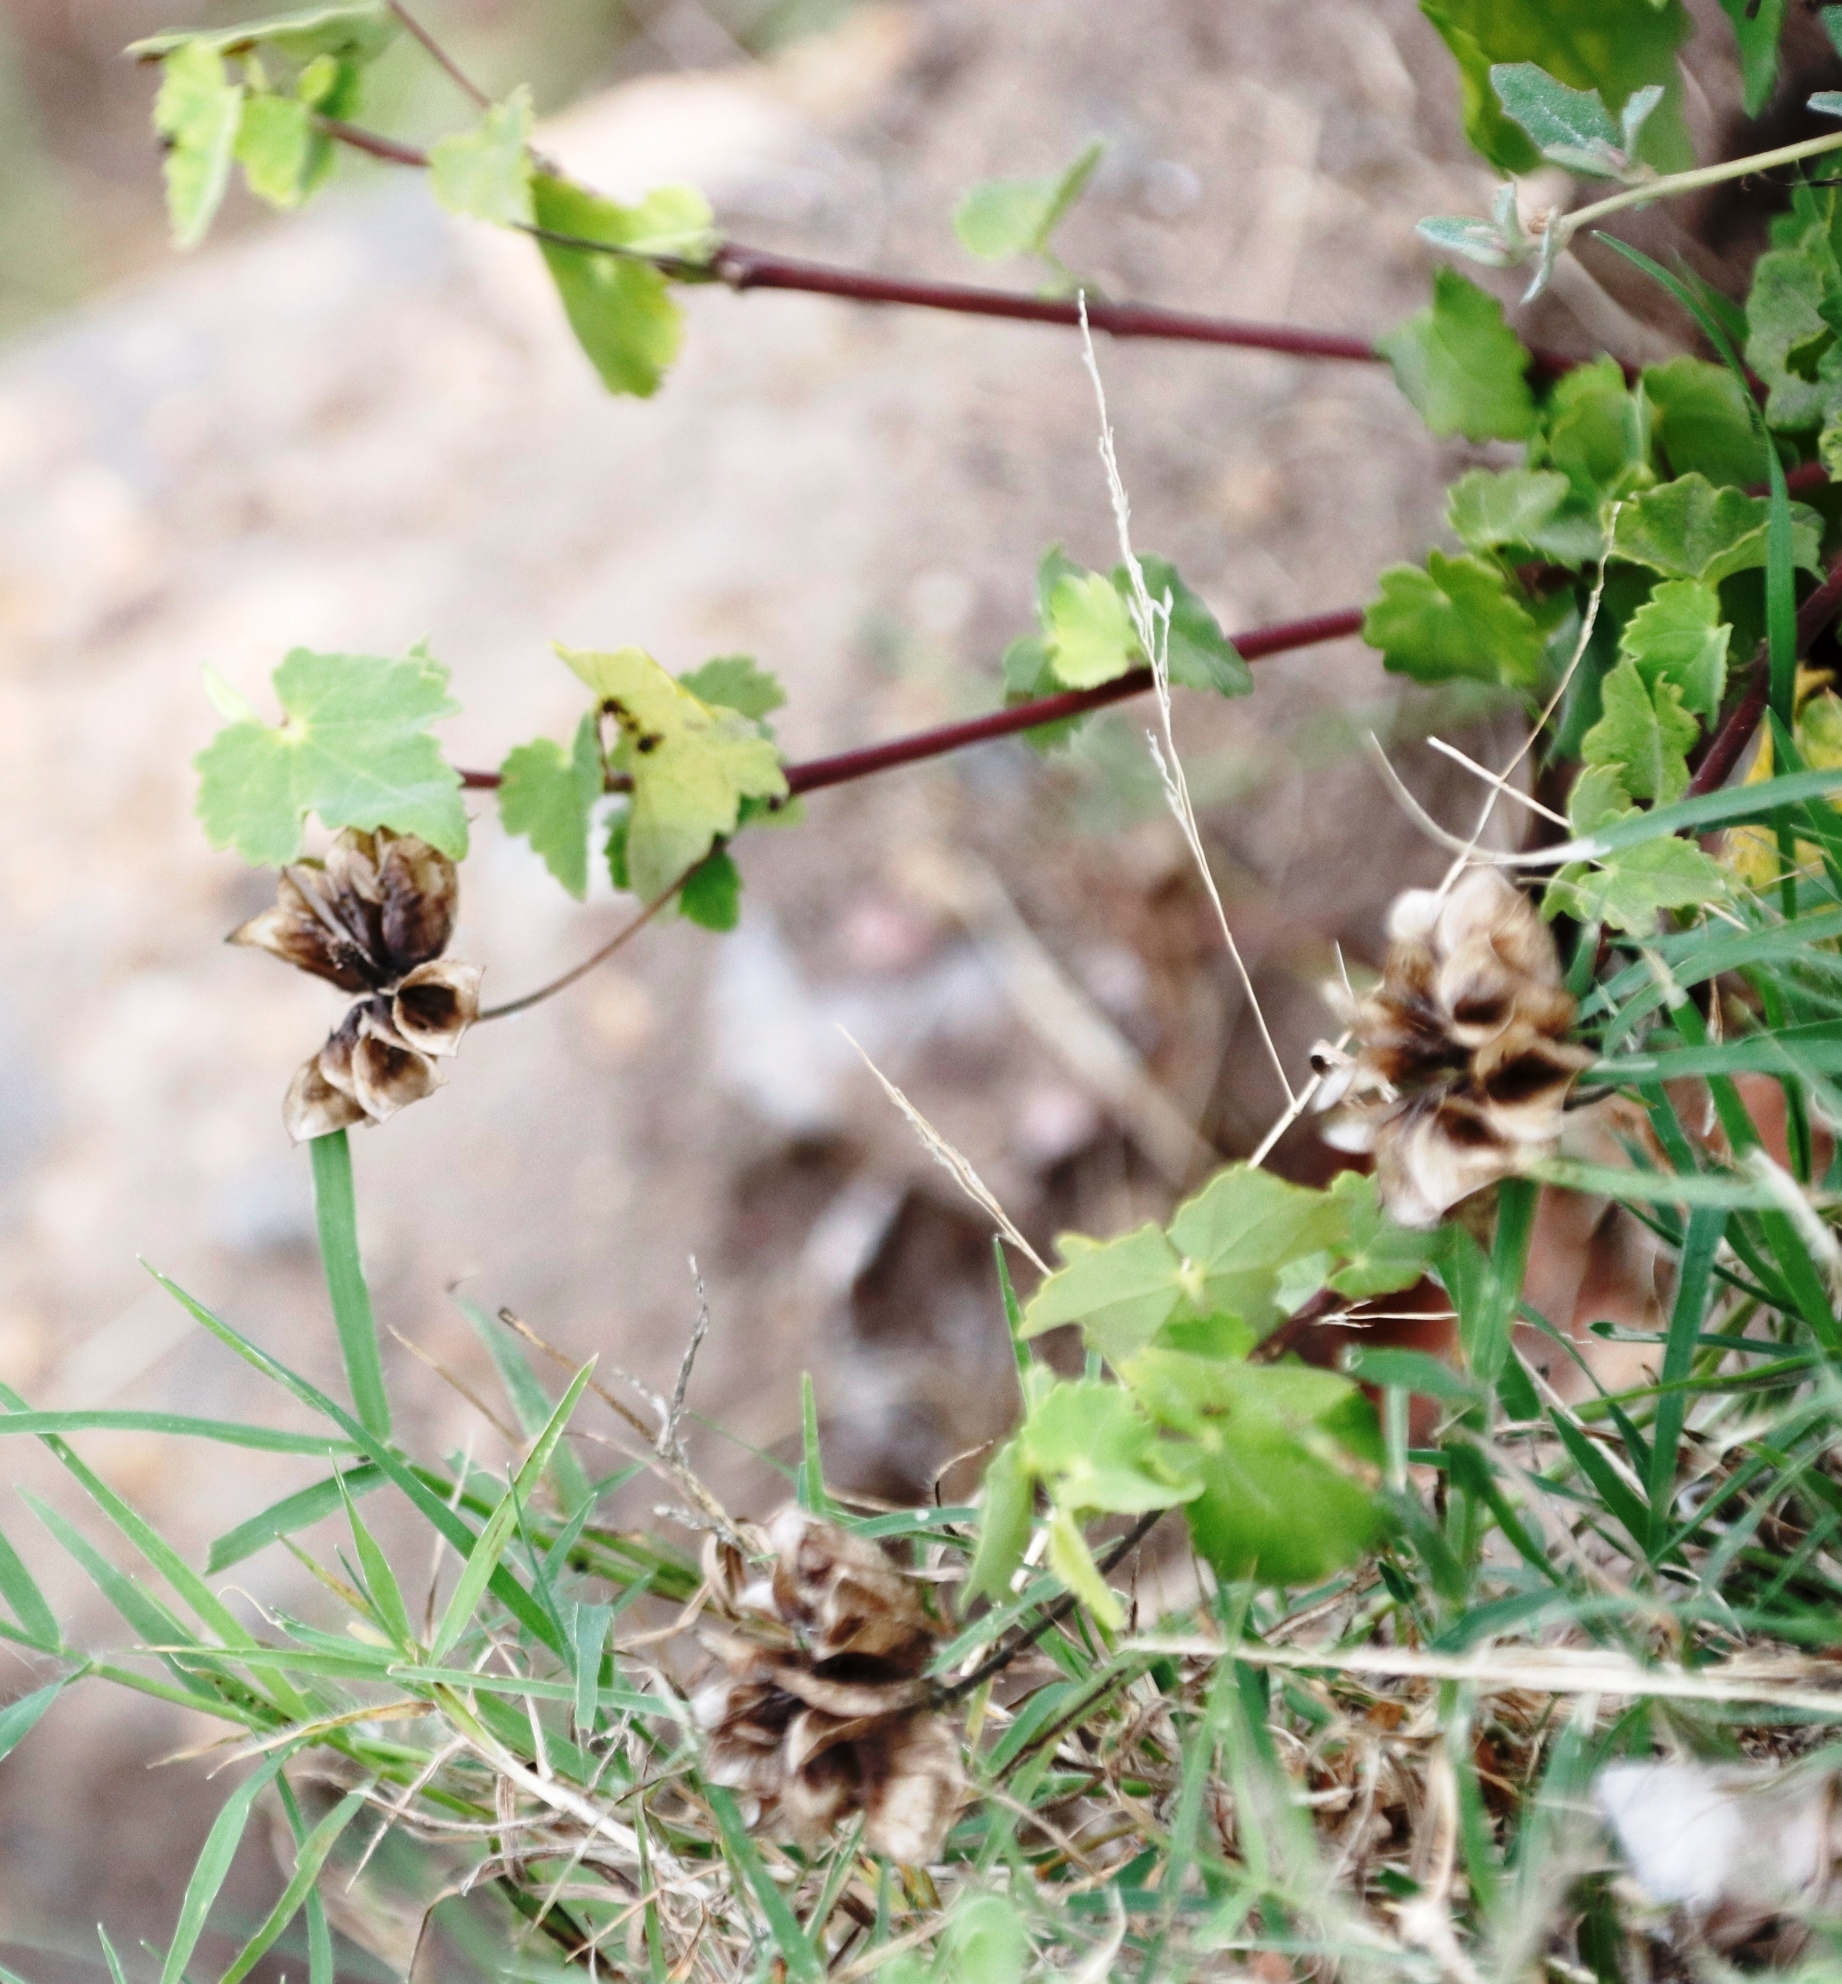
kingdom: Plantae
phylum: Tracheophyta
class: Magnoliopsida
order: Malvales
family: Malvaceae
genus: Abutilon
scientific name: Abutilon sonneratianum
